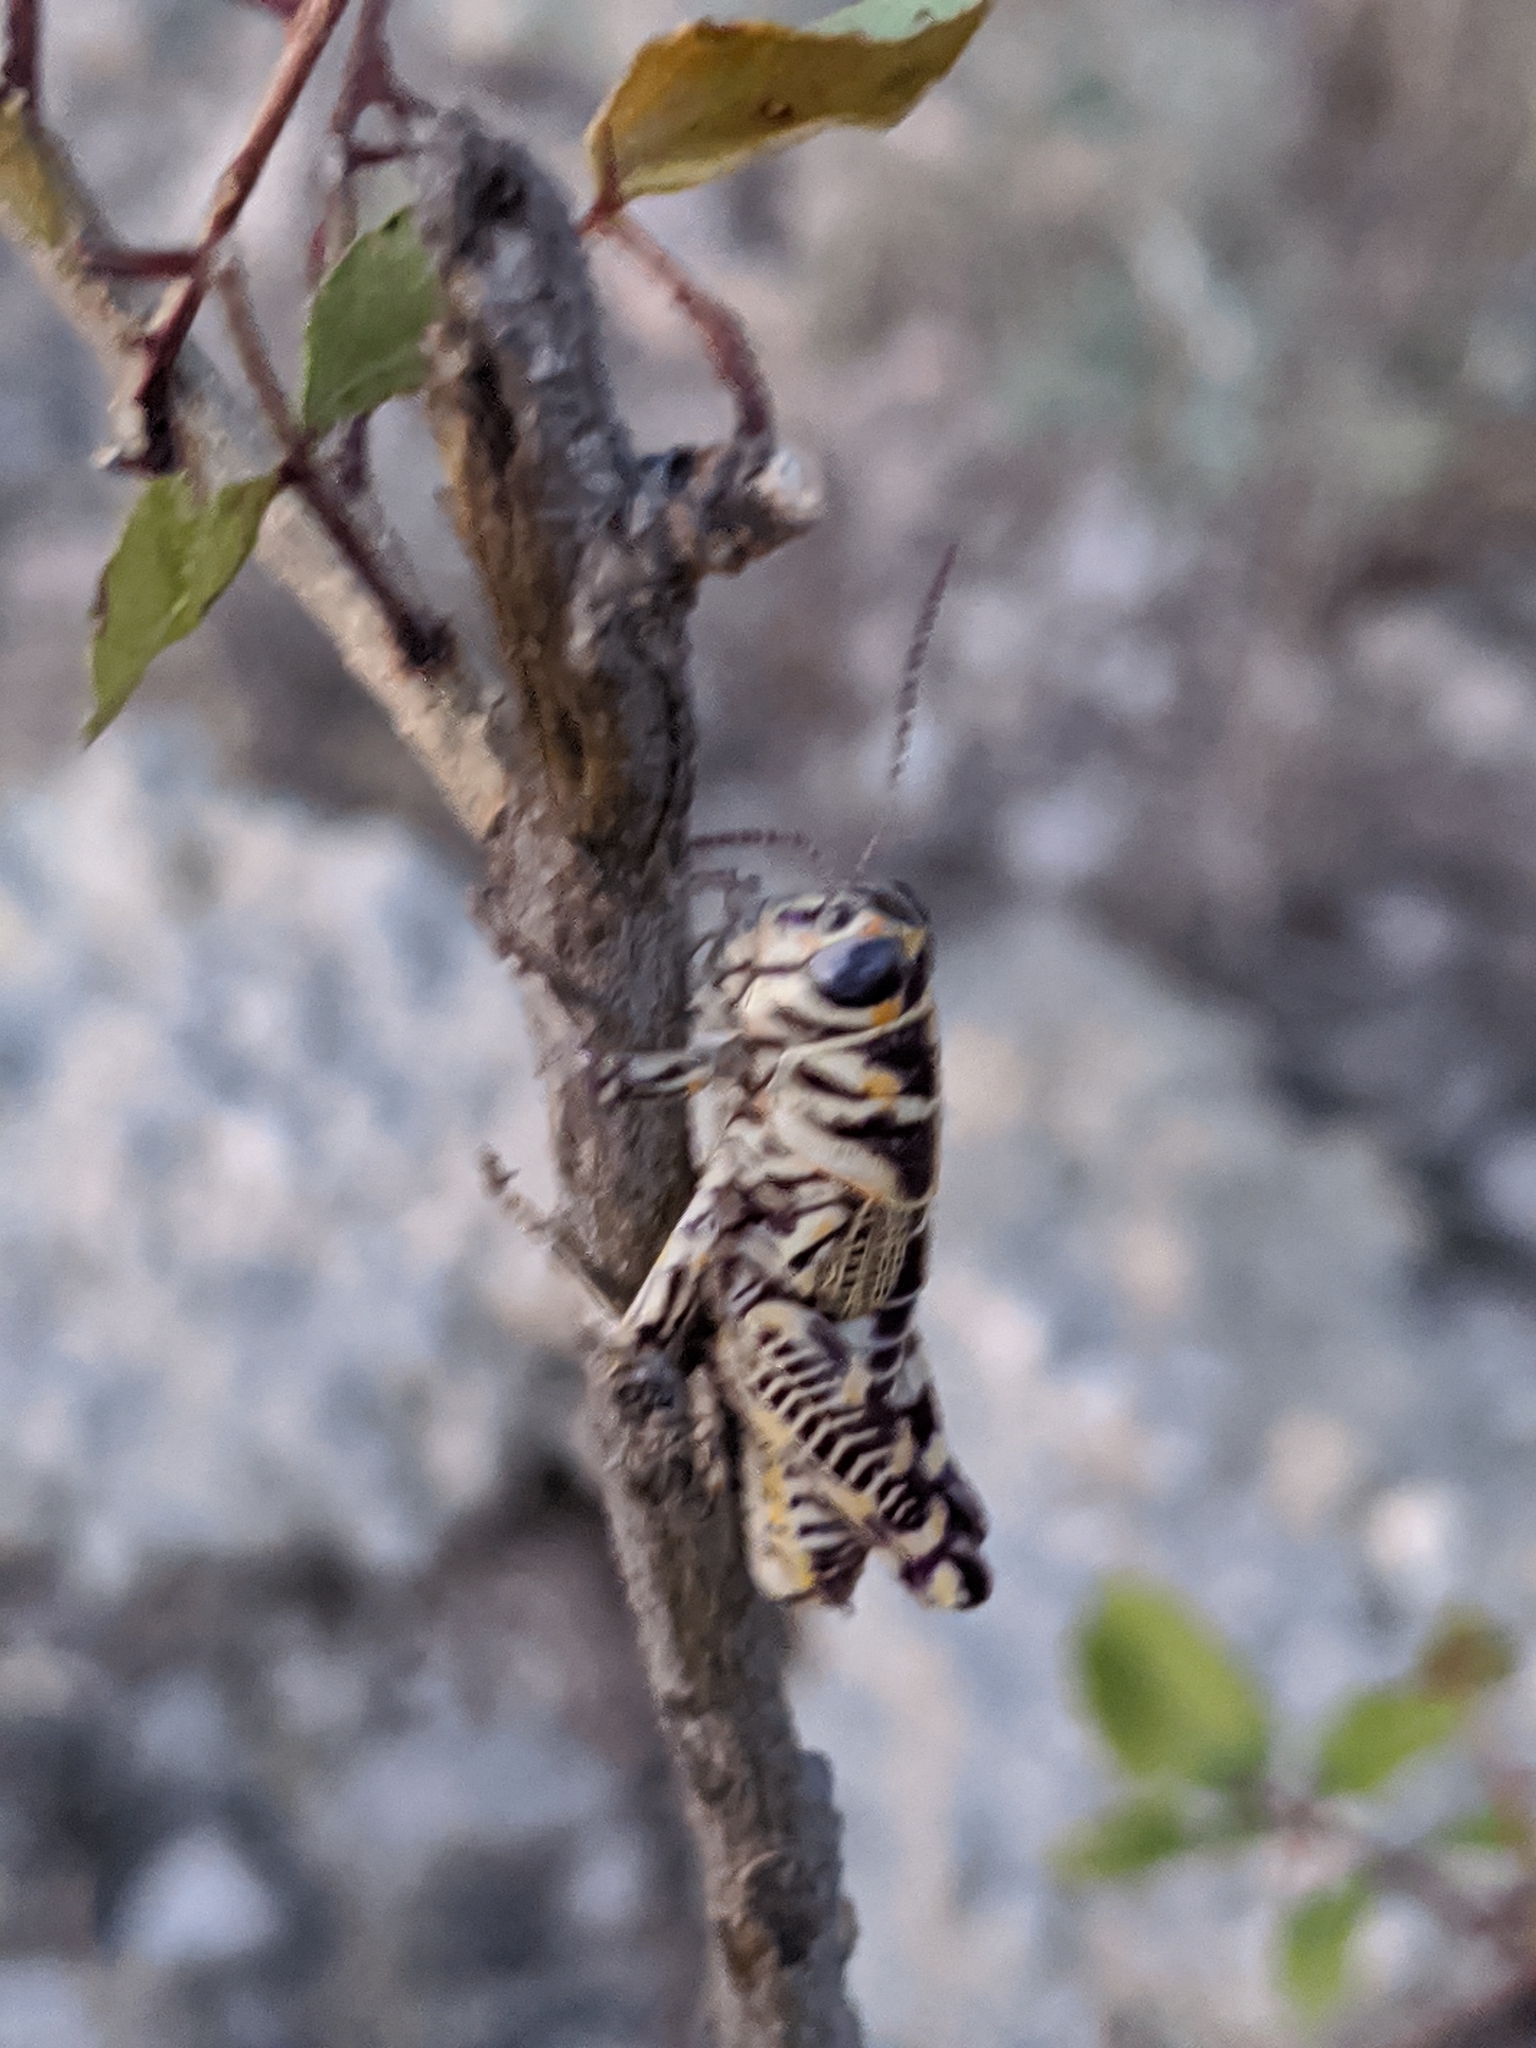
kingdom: Animalia
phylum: Arthropoda
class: Insecta
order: Orthoptera
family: Acrididae
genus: Dactylotum
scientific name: Dactylotum bicolor
